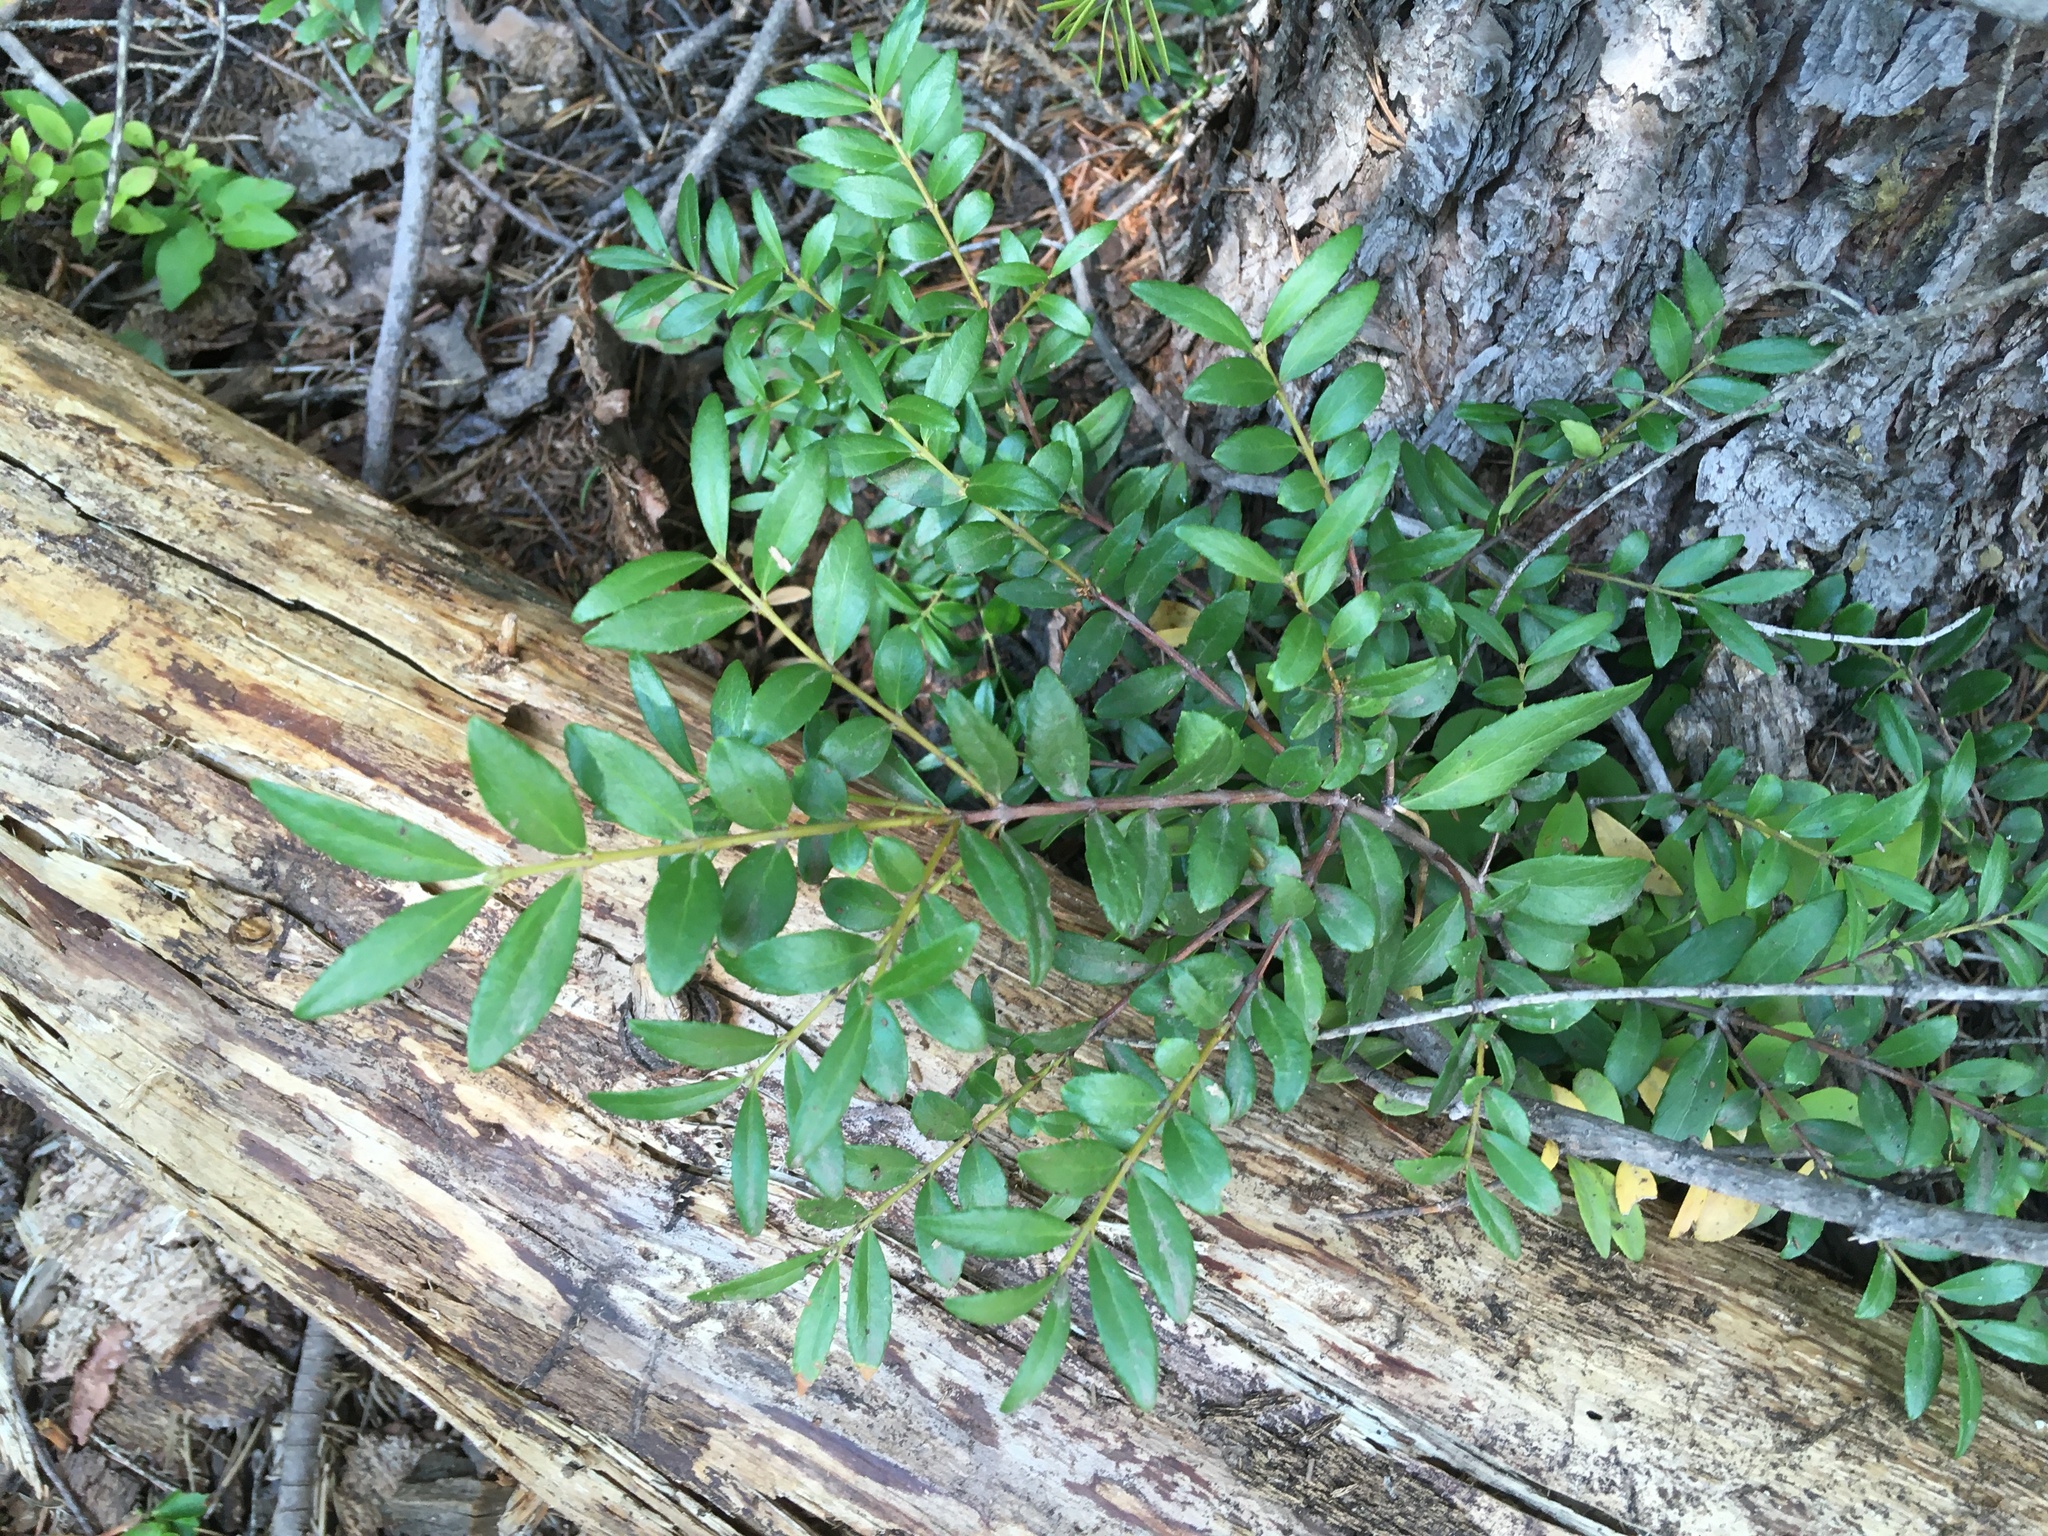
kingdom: Plantae
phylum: Tracheophyta
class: Magnoliopsida
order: Celastrales
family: Celastraceae
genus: Paxistima
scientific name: Paxistima myrsinites
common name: Mountain-lover
